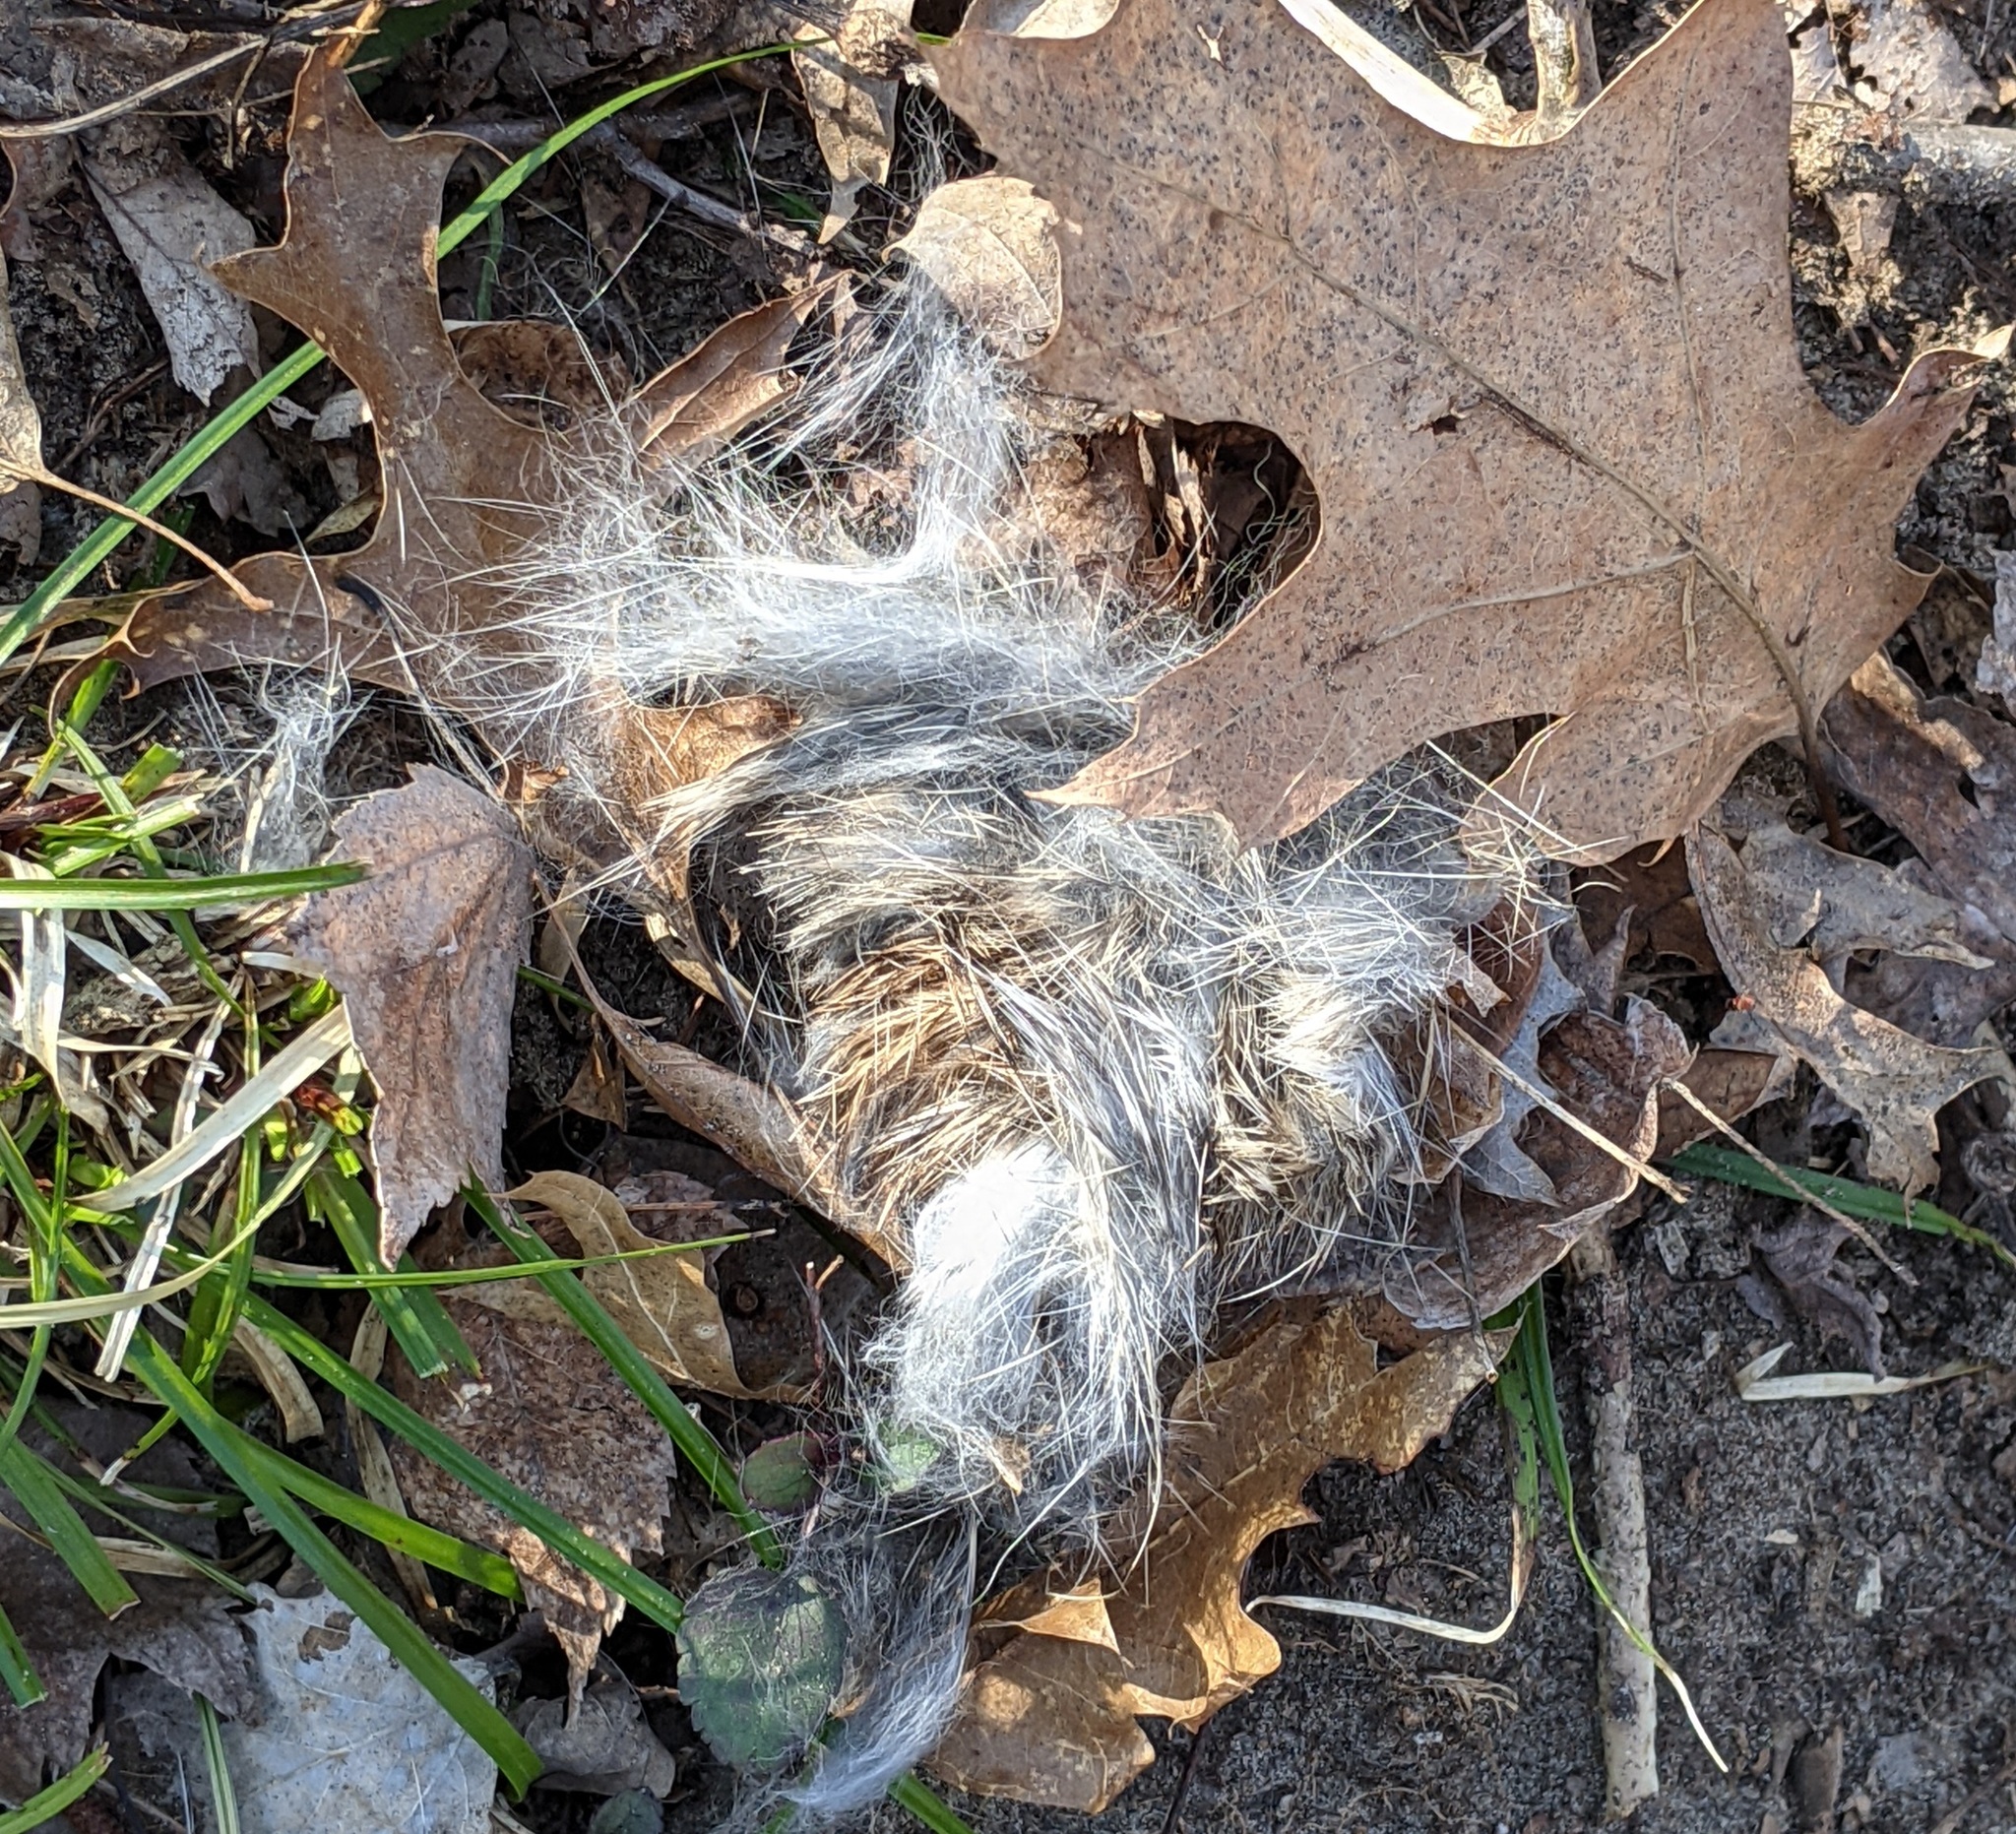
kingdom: Animalia
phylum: Chordata
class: Mammalia
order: Lagomorpha
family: Leporidae
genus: Sylvilagus
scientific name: Sylvilagus floridanus
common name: Eastern cottontail
